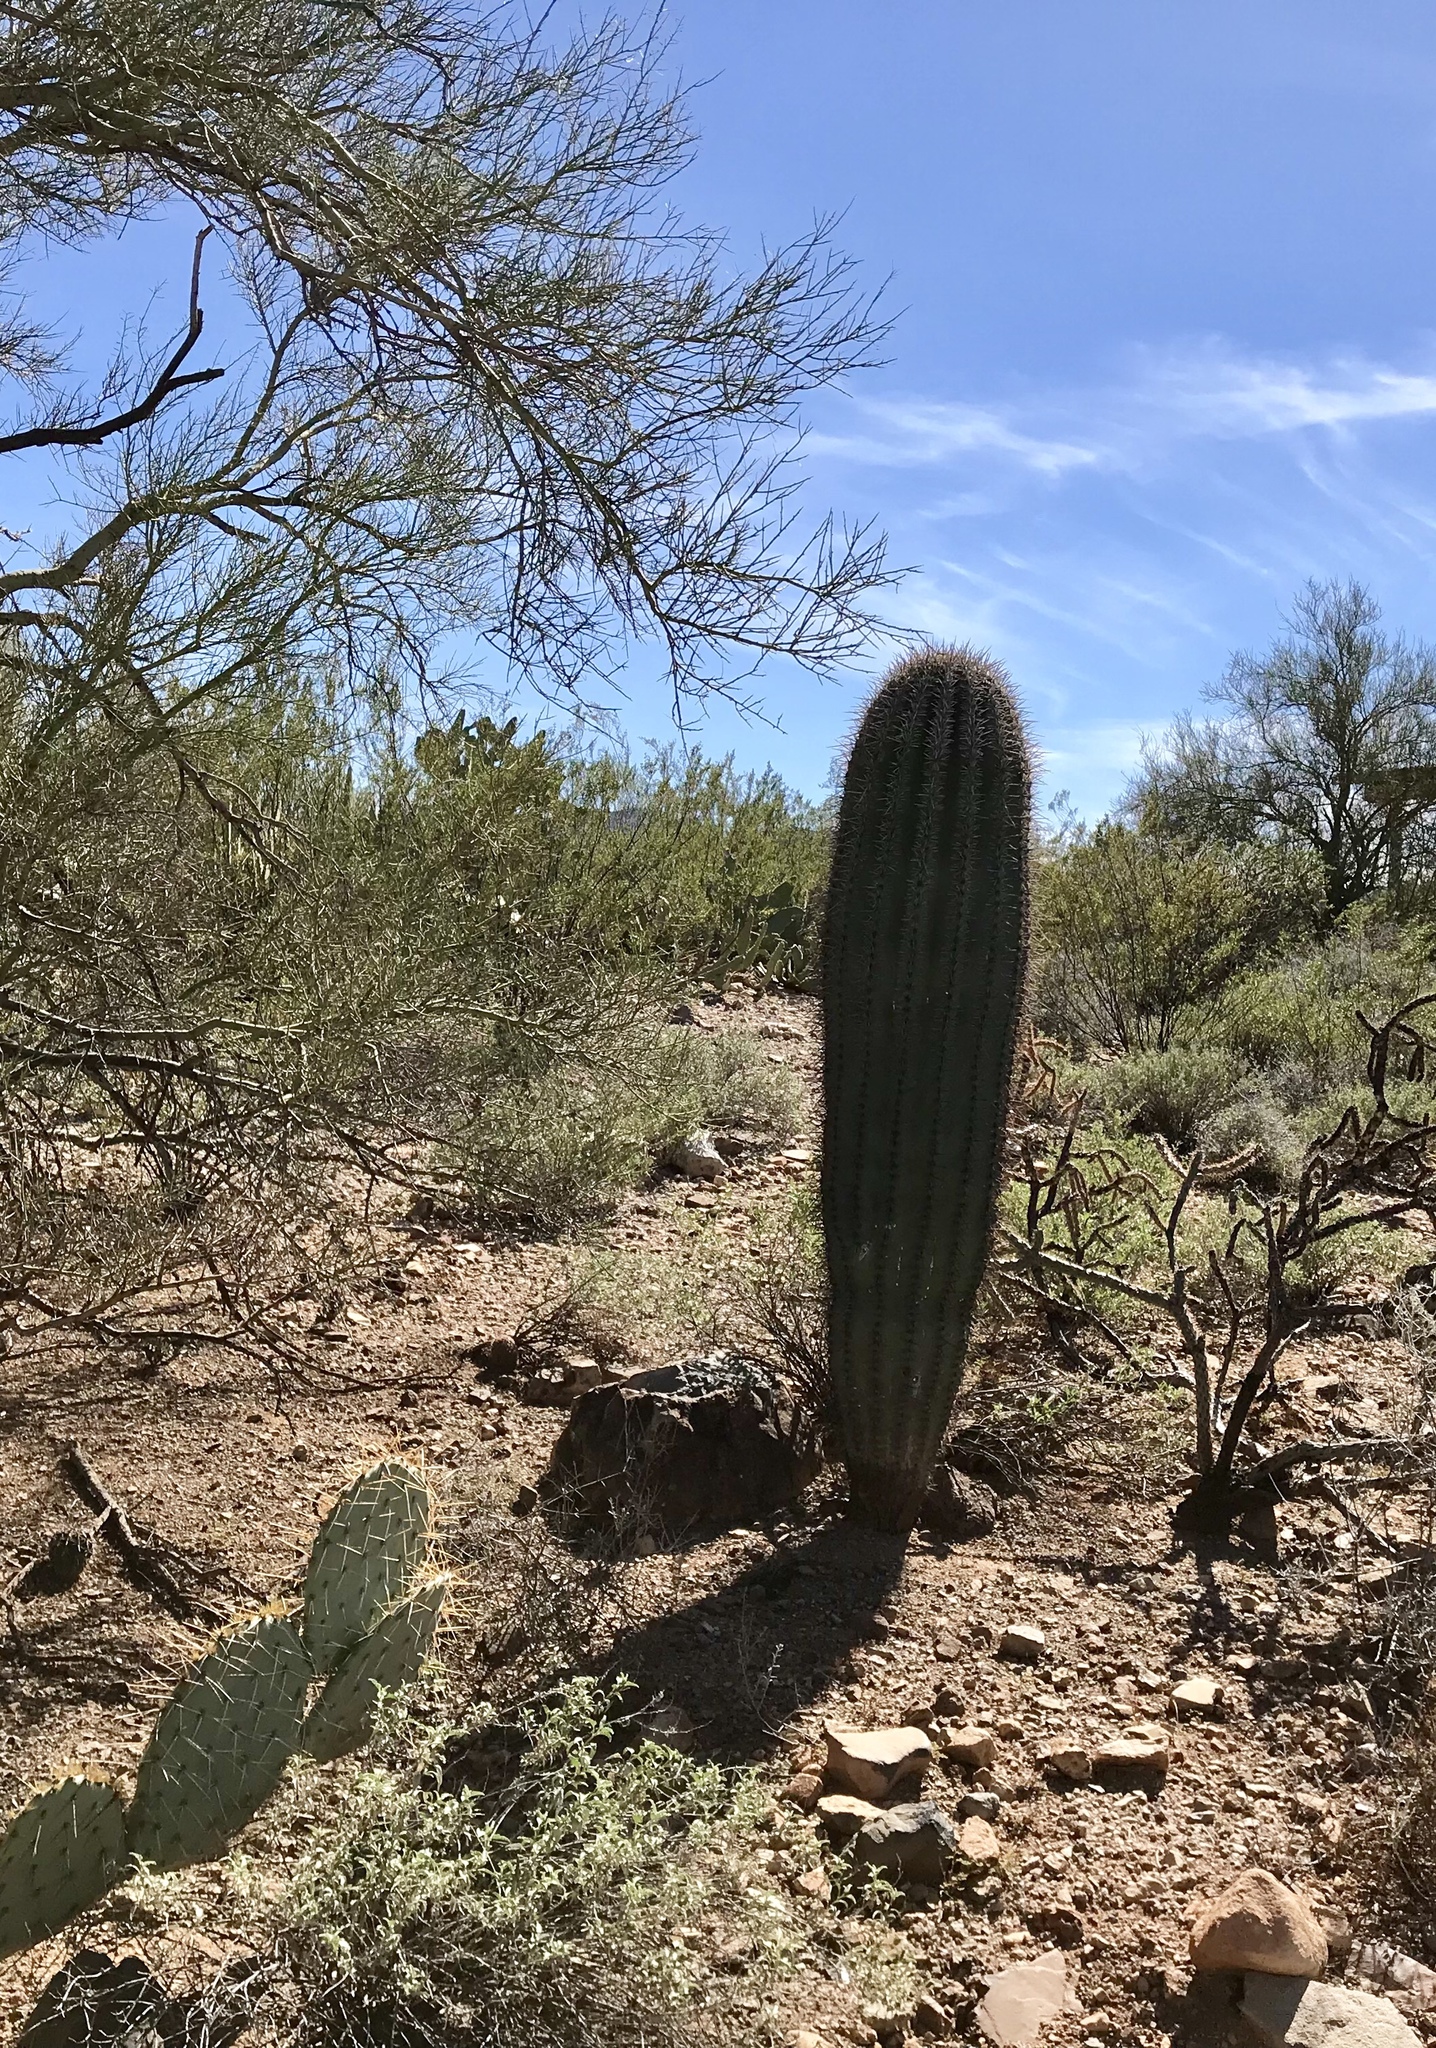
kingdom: Plantae
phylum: Tracheophyta
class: Magnoliopsida
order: Caryophyllales
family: Cactaceae
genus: Carnegiea
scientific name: Carnegiea gigantea
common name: Saguaro
